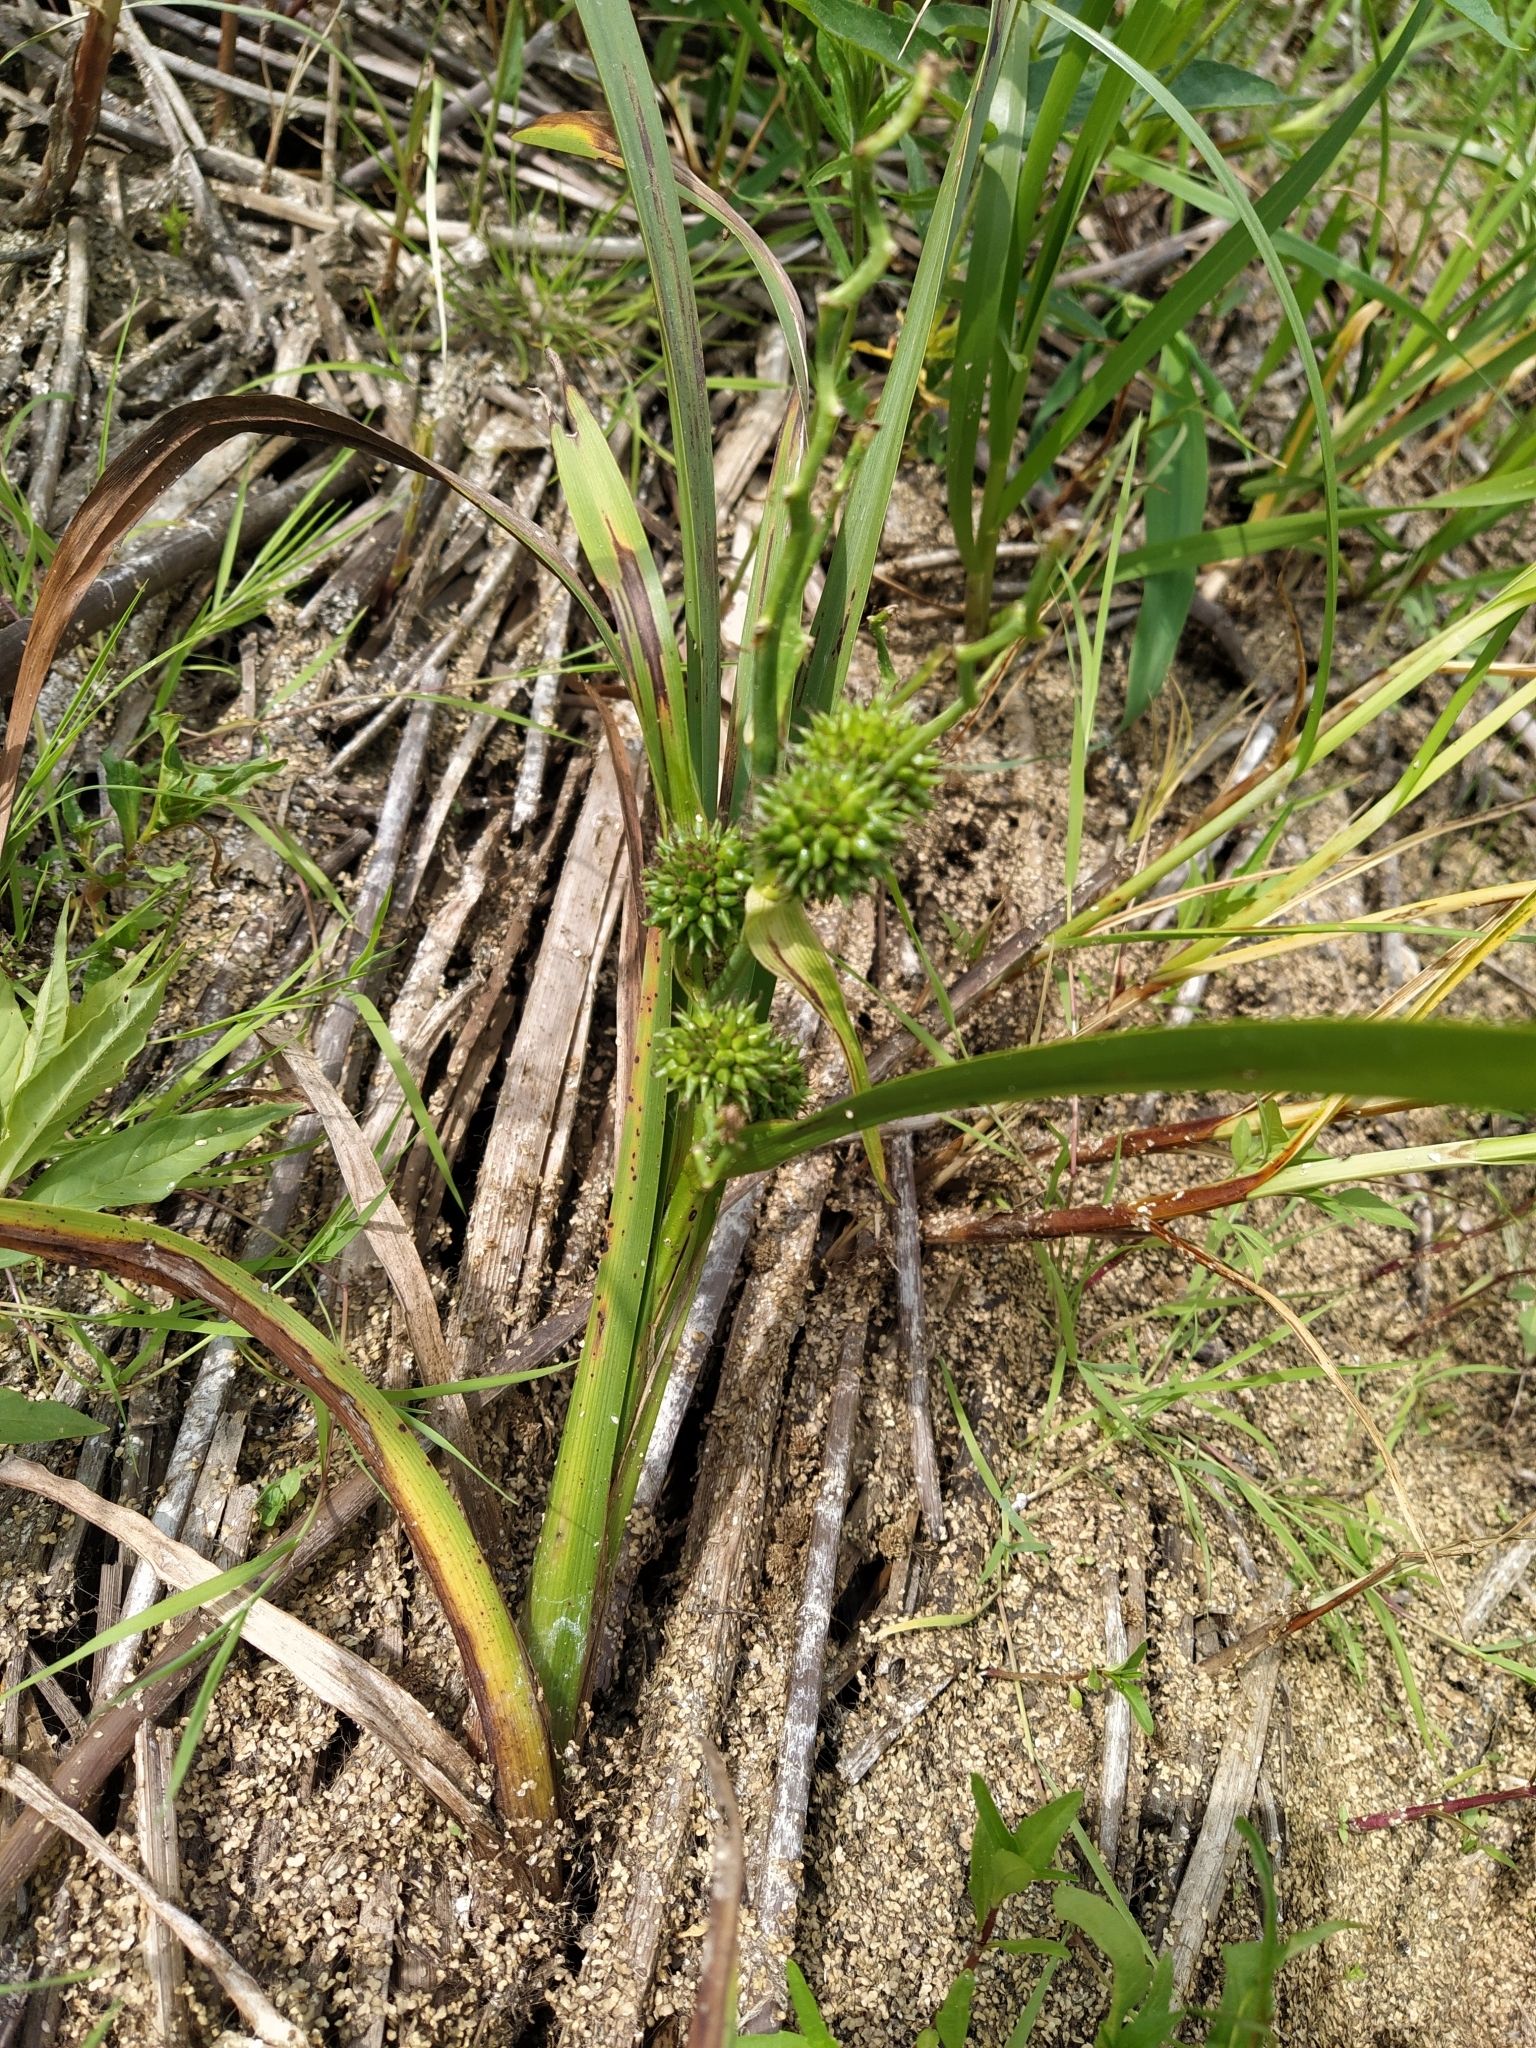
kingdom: Plantae
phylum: Tracheophyta
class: Liliopsida
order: Poales
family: Typhaceae
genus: Sparganium
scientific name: Sparganium erectum
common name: Branched bur-reed
